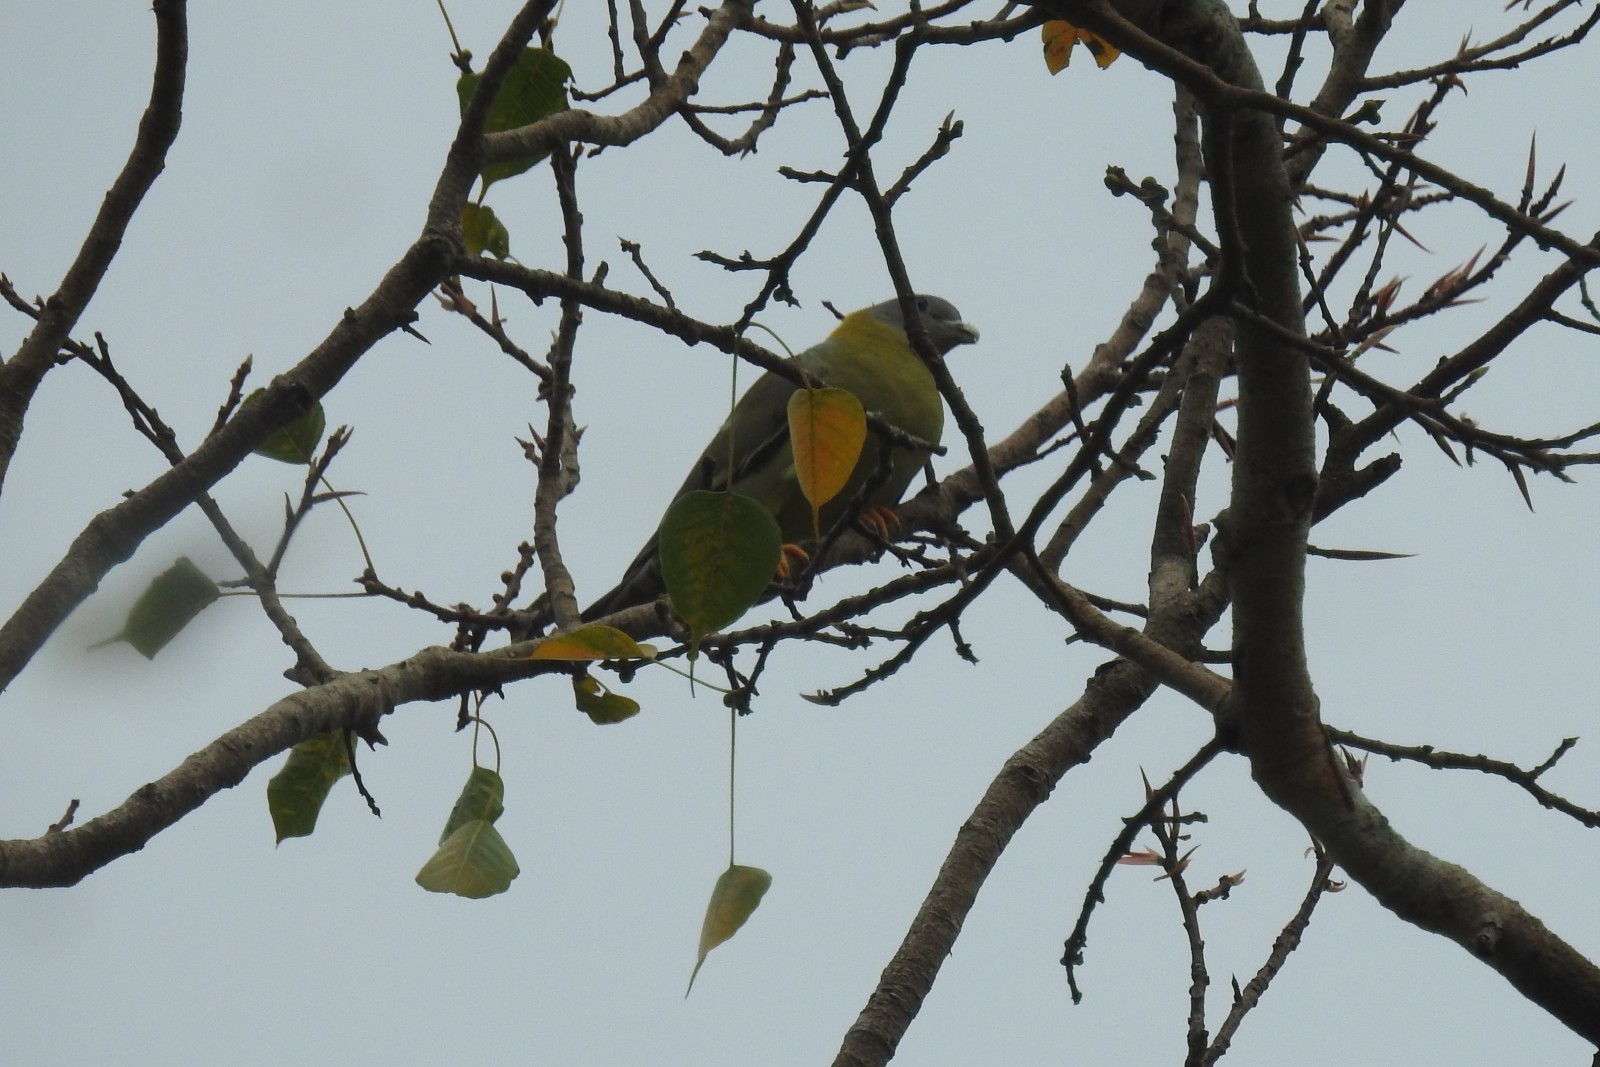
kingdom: Animalia
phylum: Chordata
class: Aves
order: Columbiformes
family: Columbidae
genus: Treron
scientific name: Treron phoenicopterus
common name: Yellow-footed green pigeon
